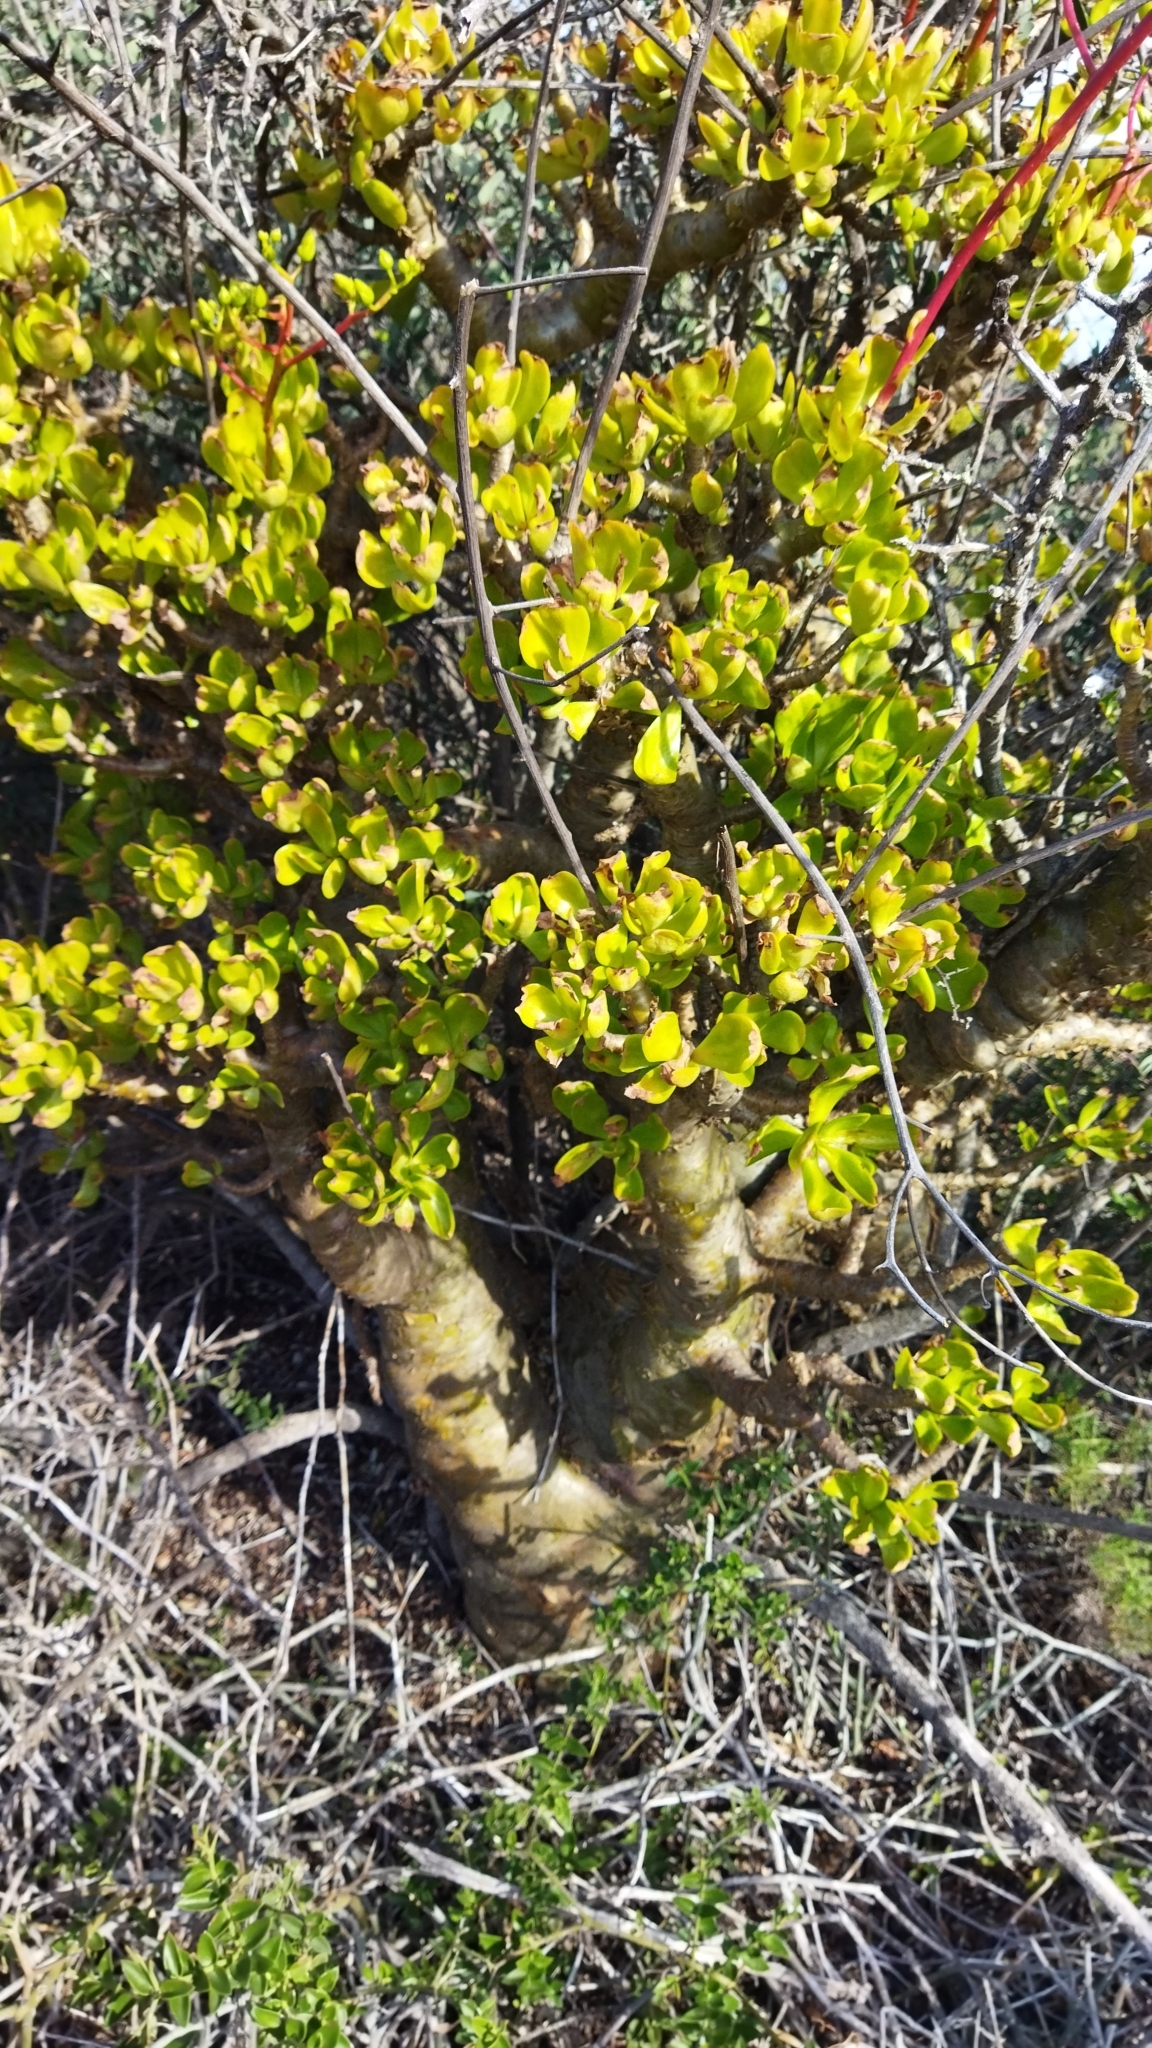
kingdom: Plantae
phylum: Tracheophyta
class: Magnoliopsida
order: Saxifragales
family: Crassulaceae
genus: Tylecodon
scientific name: Tylecodon paniculatus
